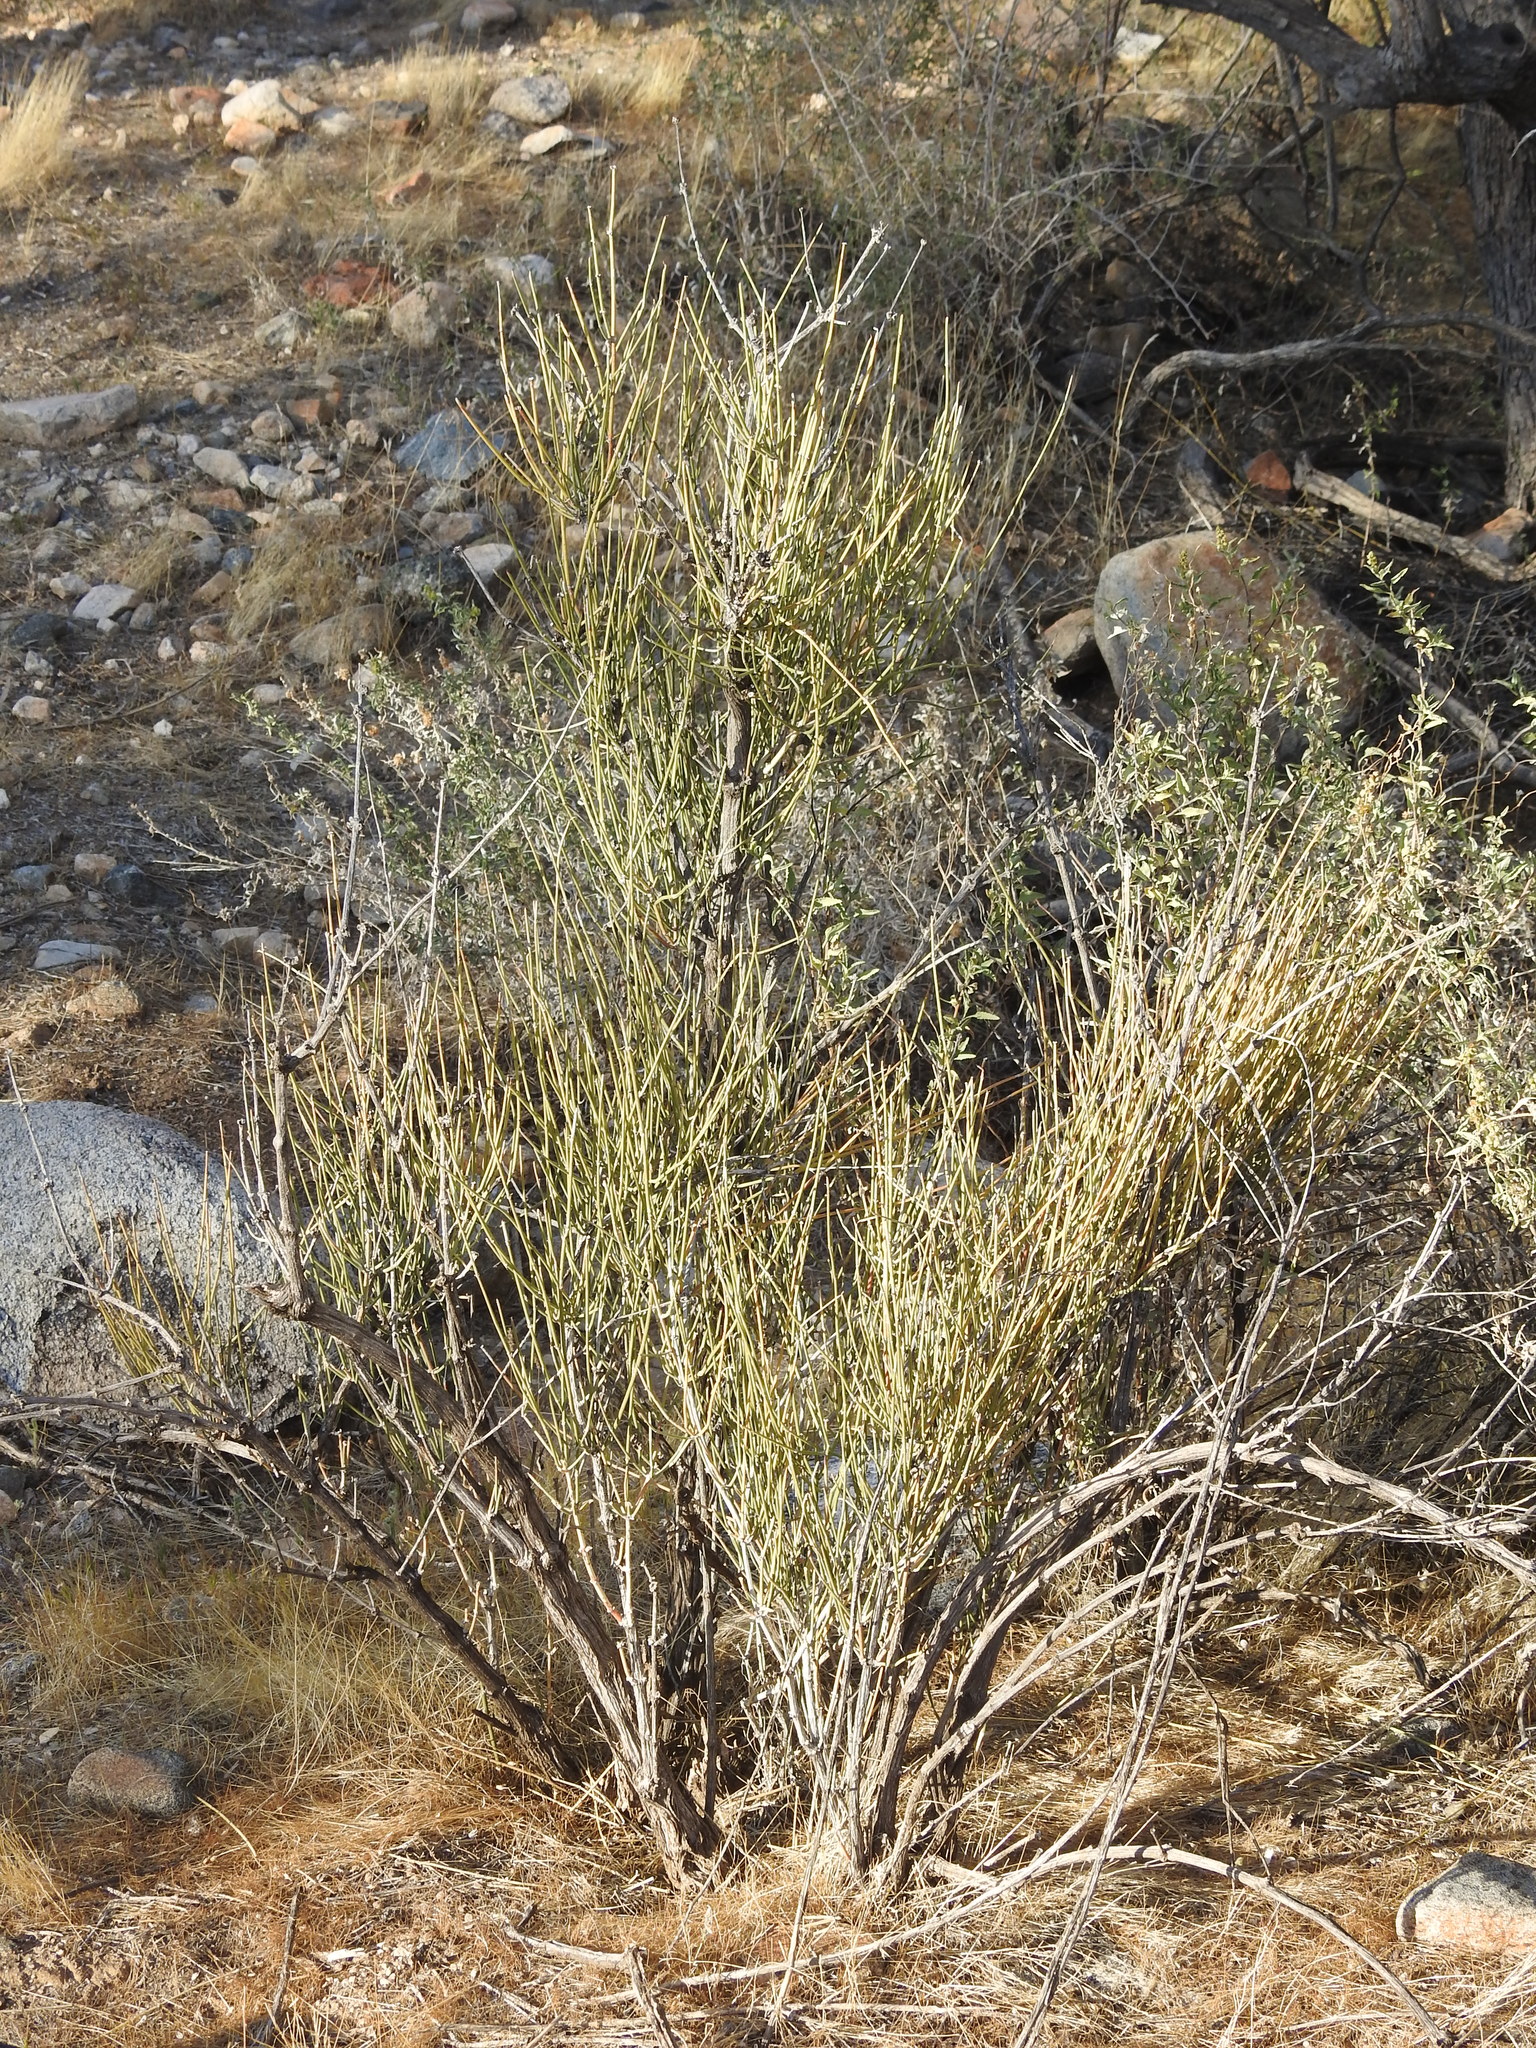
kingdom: Plantae
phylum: Tracheophyta
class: Gnetopsida
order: Ephedrales
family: Ephedraceae
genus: Ephedra
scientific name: Ephedra
